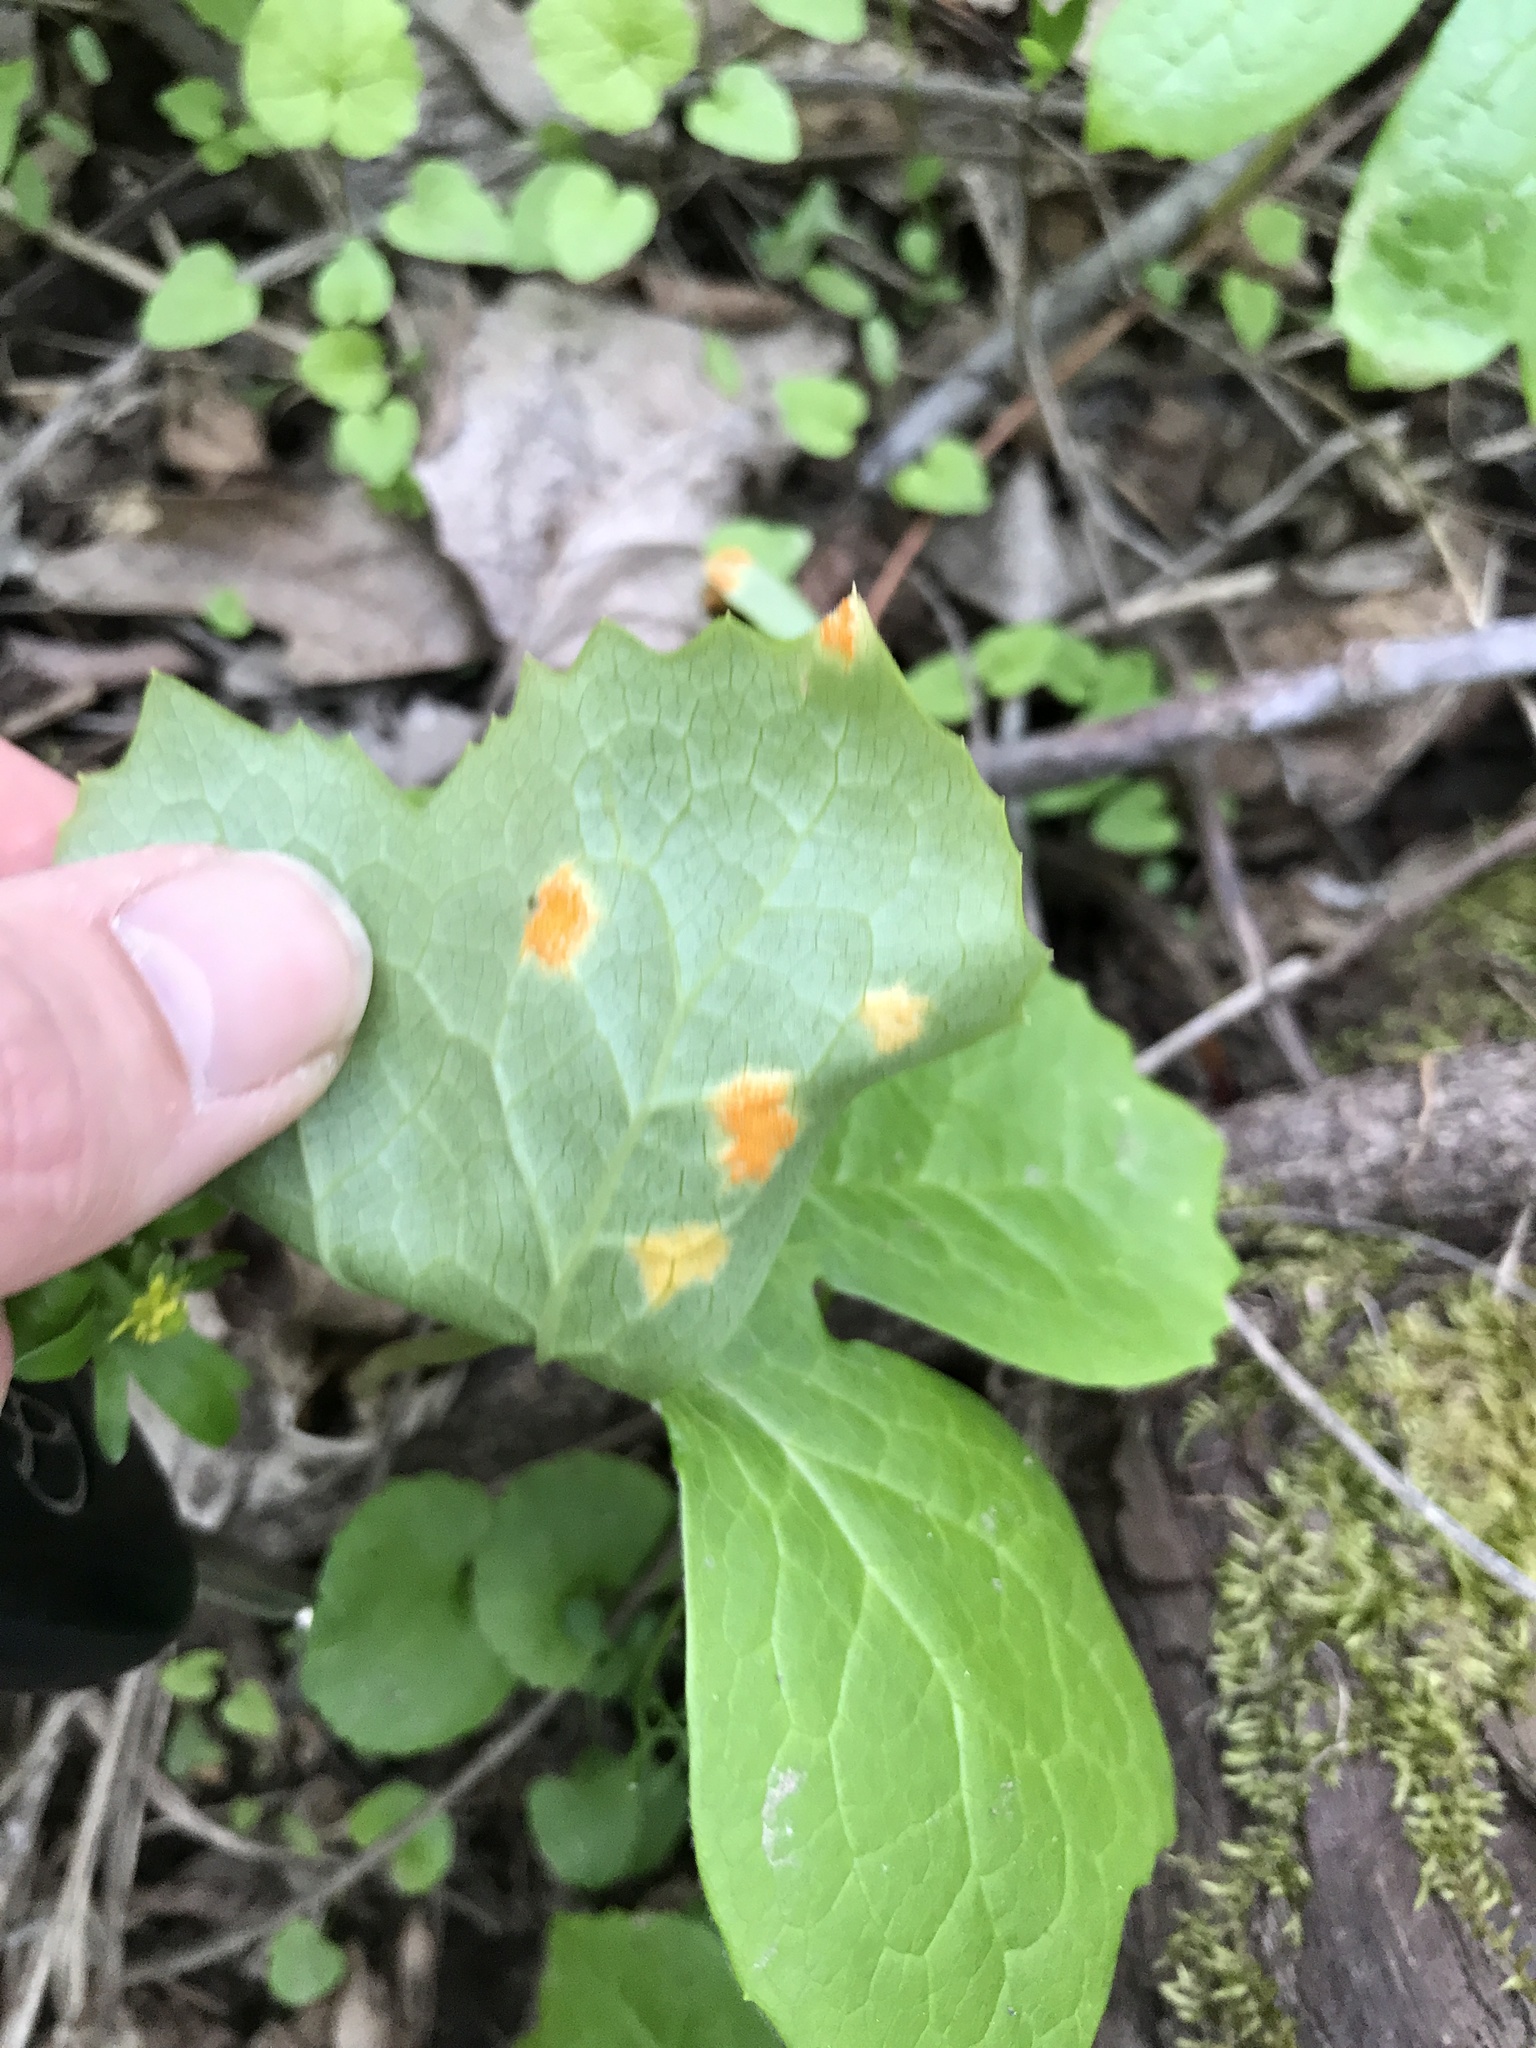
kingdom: Fungi
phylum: Basidiomycota
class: Pucciniomycetes
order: Pucciniales
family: Pucciniaceae
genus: Puccinia
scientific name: Puccinia podophylli
